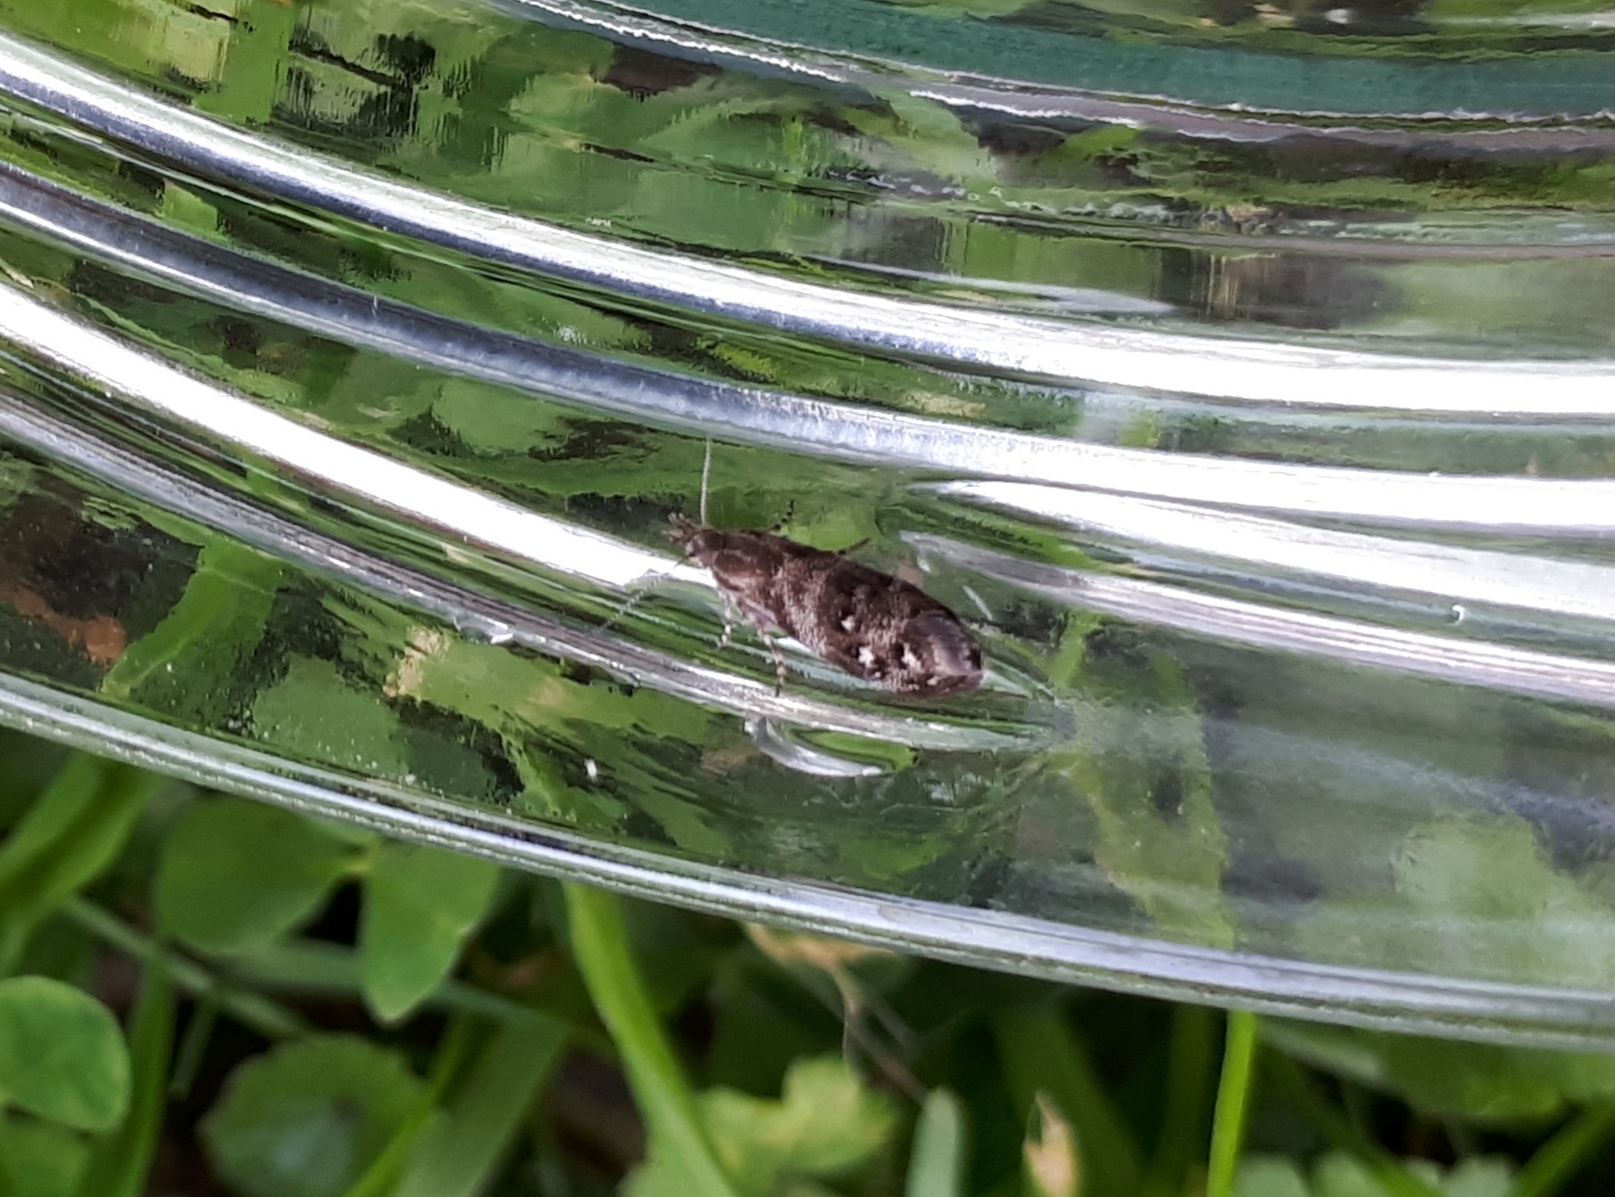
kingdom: Animalia
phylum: Arthropoda
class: Insecta
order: Lepidoptera
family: Choreutidae
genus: Tebenna
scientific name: Tebenna micalis
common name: Vagrant twitcher
